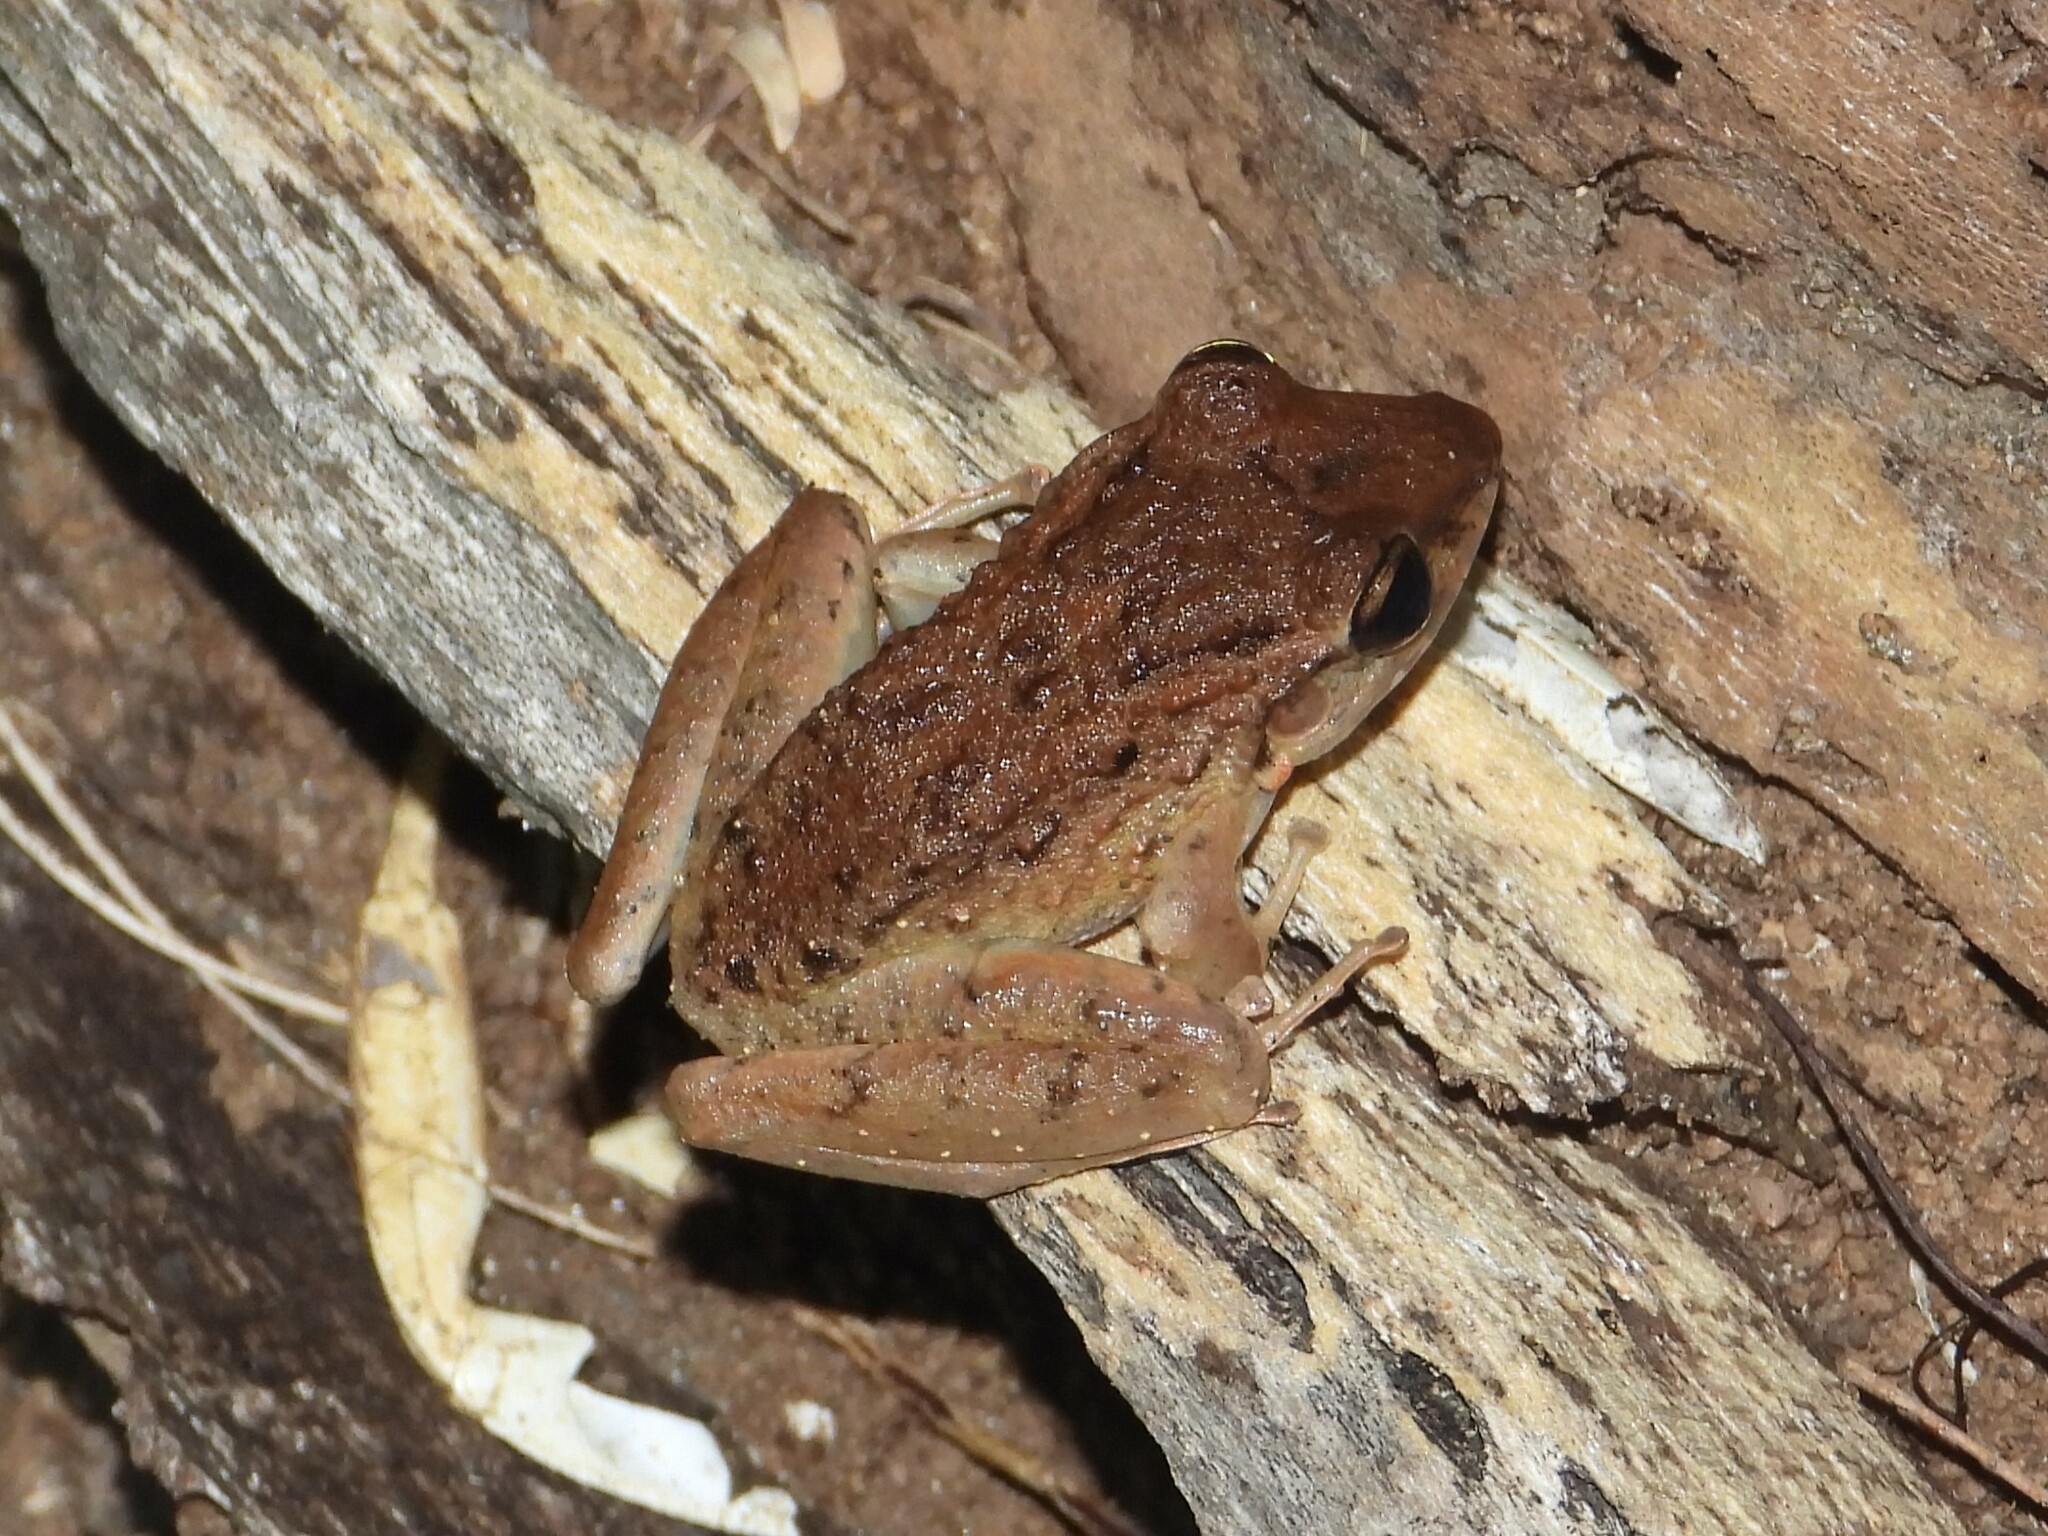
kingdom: Animalia
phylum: Chordata
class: Amphibia
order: Anura
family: Craugastoridae
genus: Craugastor
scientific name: Craugastor fitzingeri
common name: Fitzinger's robber frog
